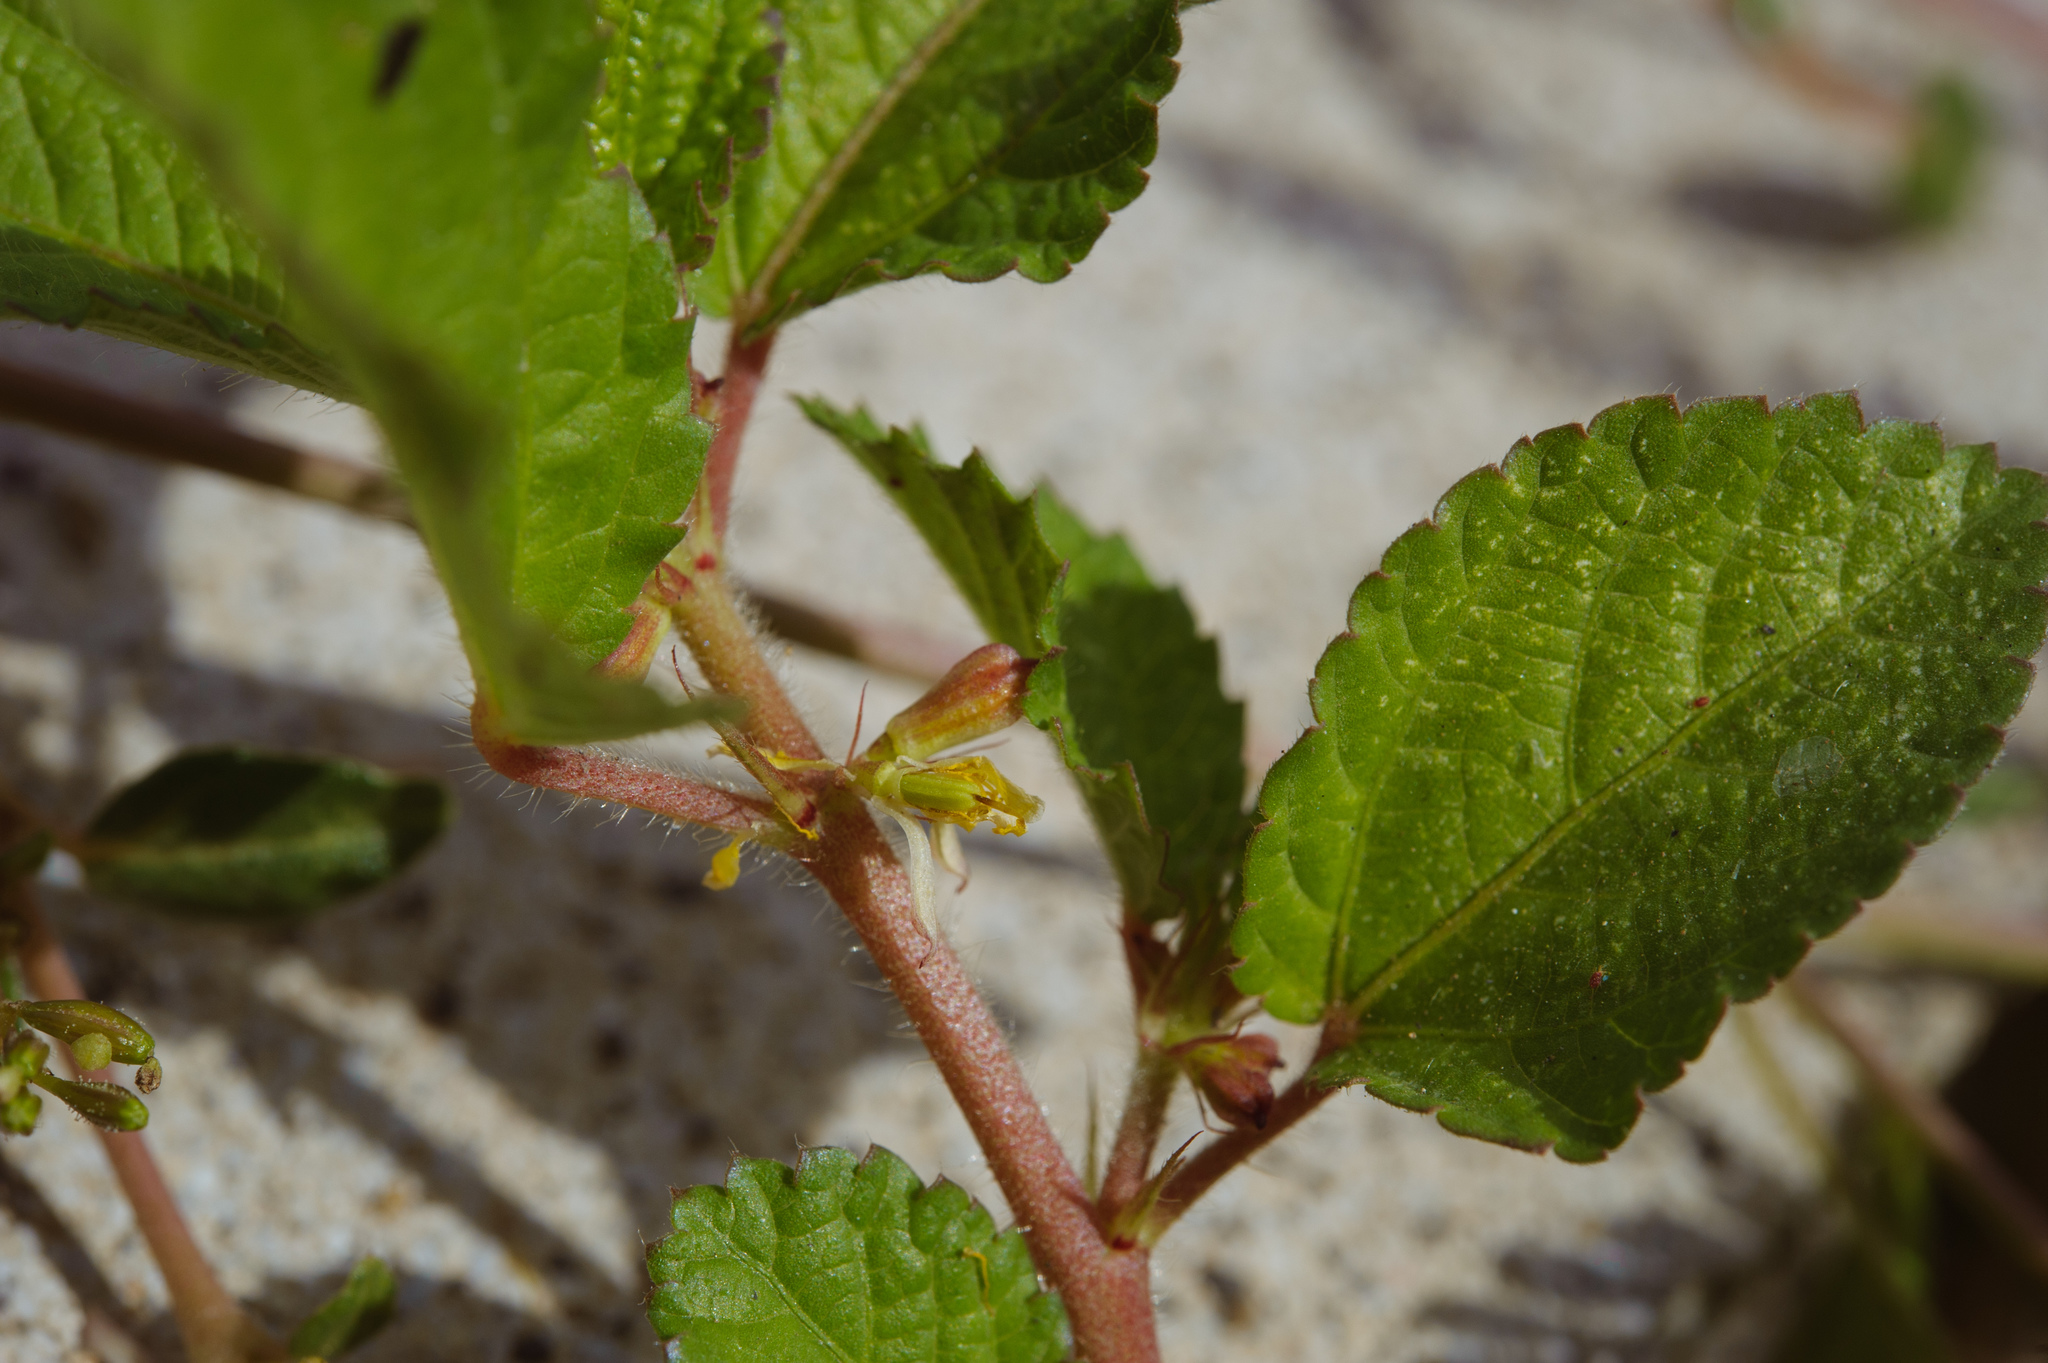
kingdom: Plantae
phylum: Tracheophyta
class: Magnoliopsida
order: Malvales
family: Malvaceae
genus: Corchorus
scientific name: Corchorus aestuans
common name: Jute
